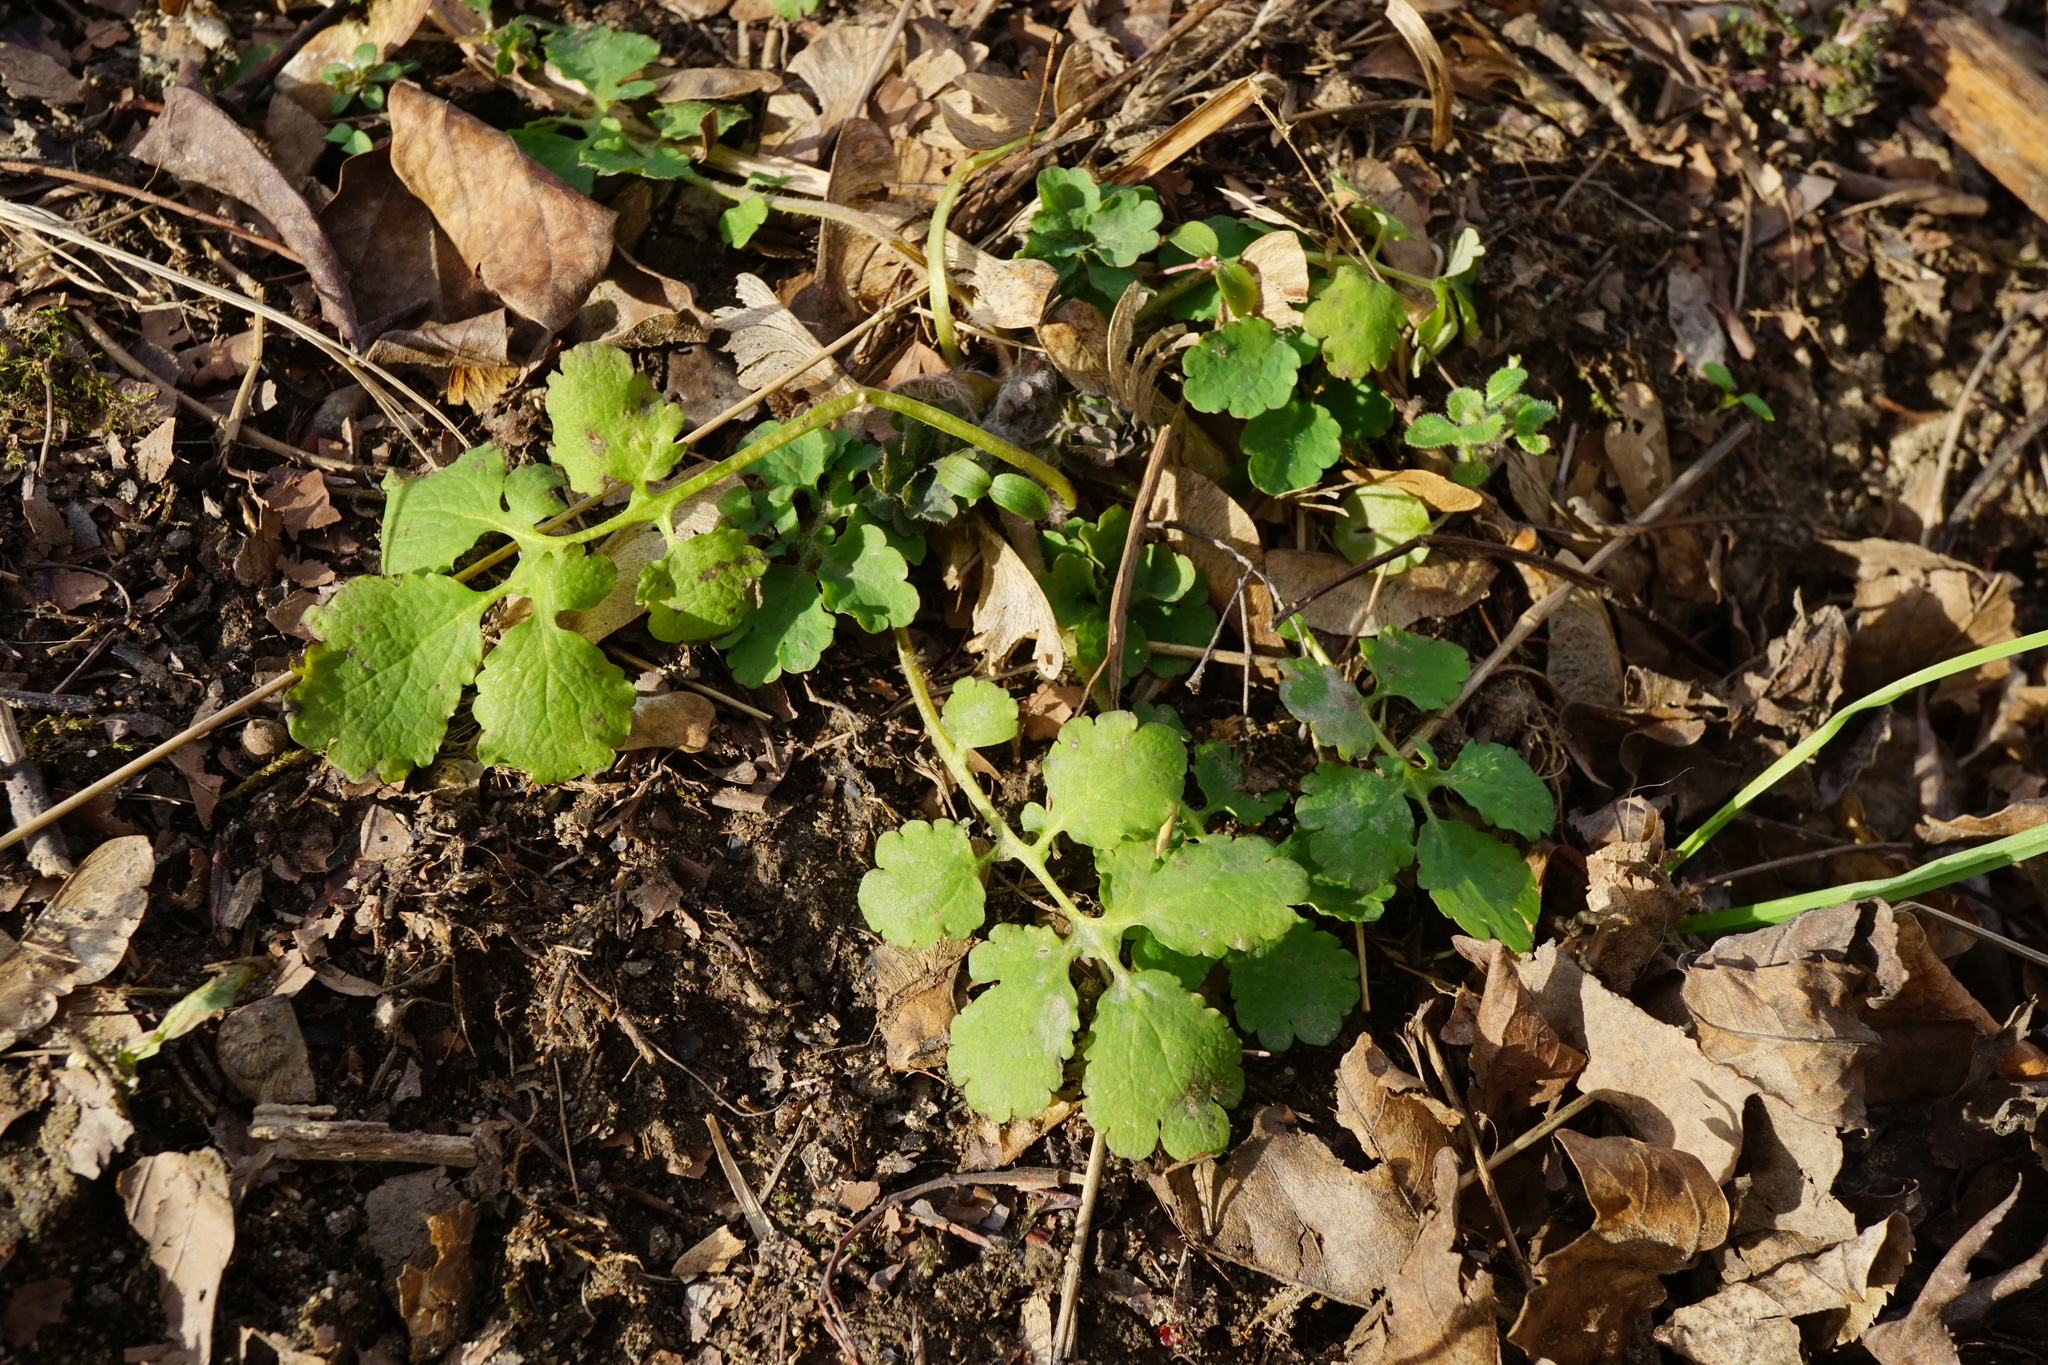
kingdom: Plantae
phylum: Tracheophyta
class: Magnoliopsida
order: Ranunculales
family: Papaveraceae
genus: Chelidonium
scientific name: Chelidonium majus
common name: Greater celandine
